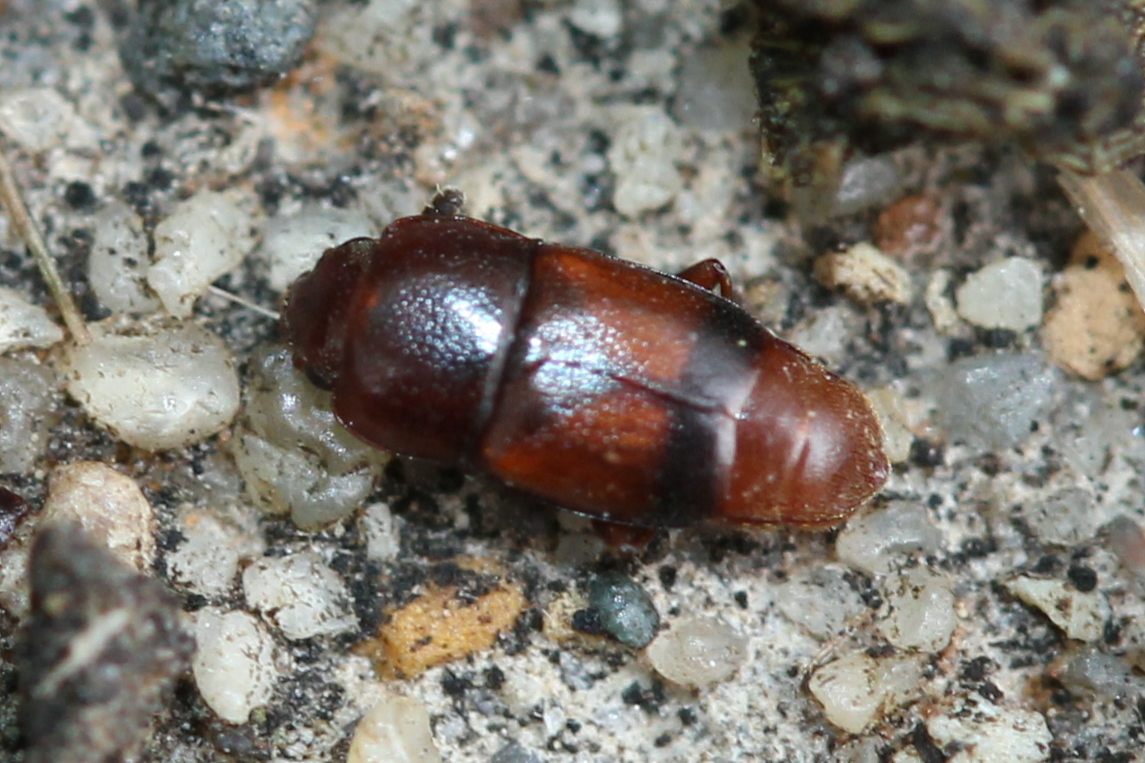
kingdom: Animalia
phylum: Arthropoda
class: Insecta
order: Coleoptera
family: Nitidulidae
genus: Carpophilus
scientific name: Carpophilus antiquus
